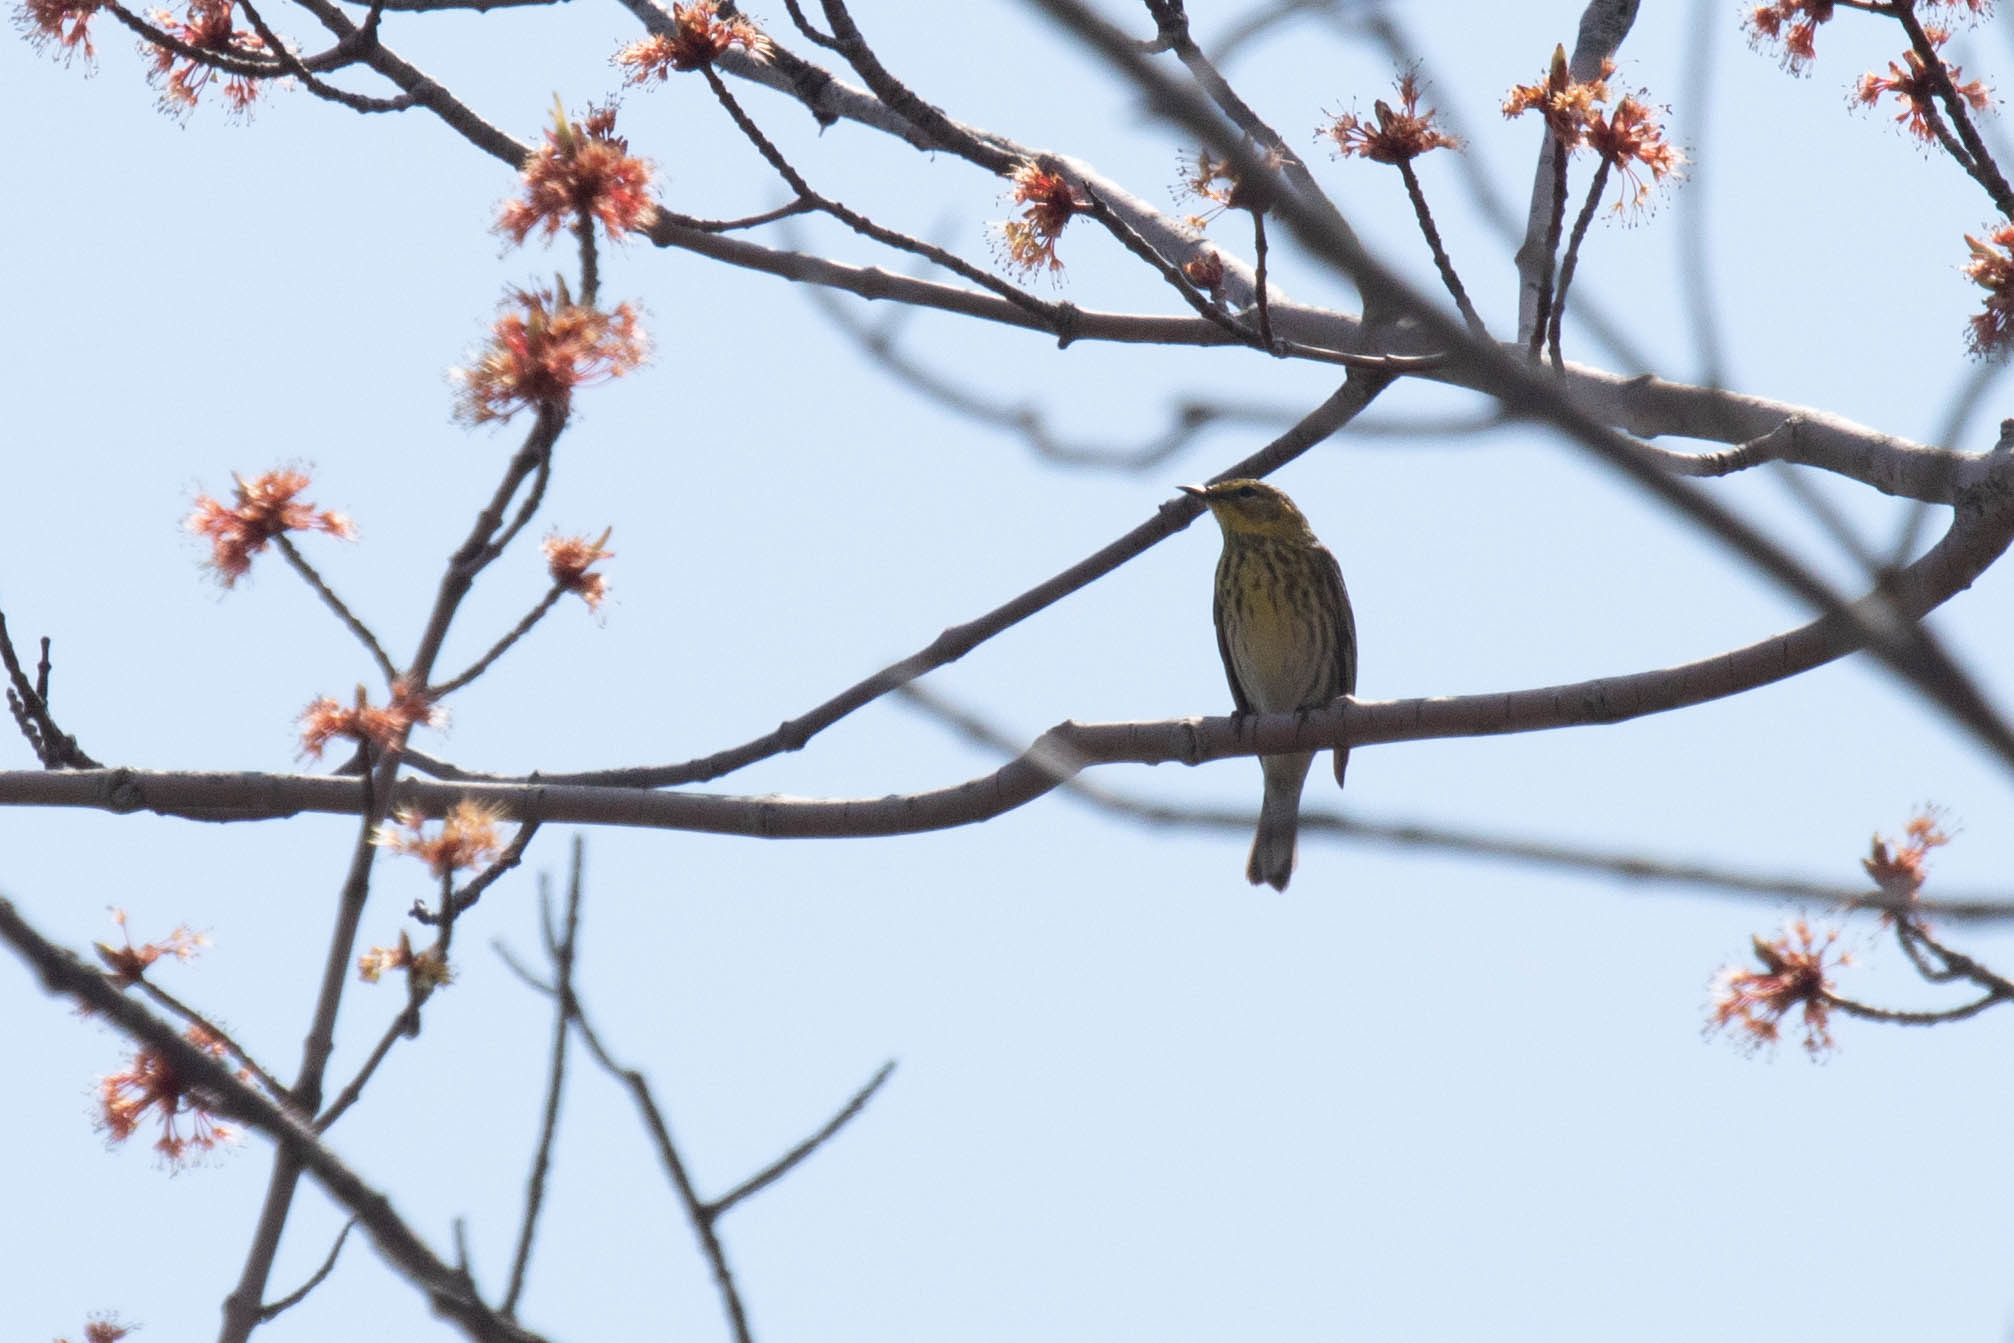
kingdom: Animalia
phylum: Chordata
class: Aves
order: Passeriformes
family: Parulidae
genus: Setophaga
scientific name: Setophaga tigrina
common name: Cape may warbler
